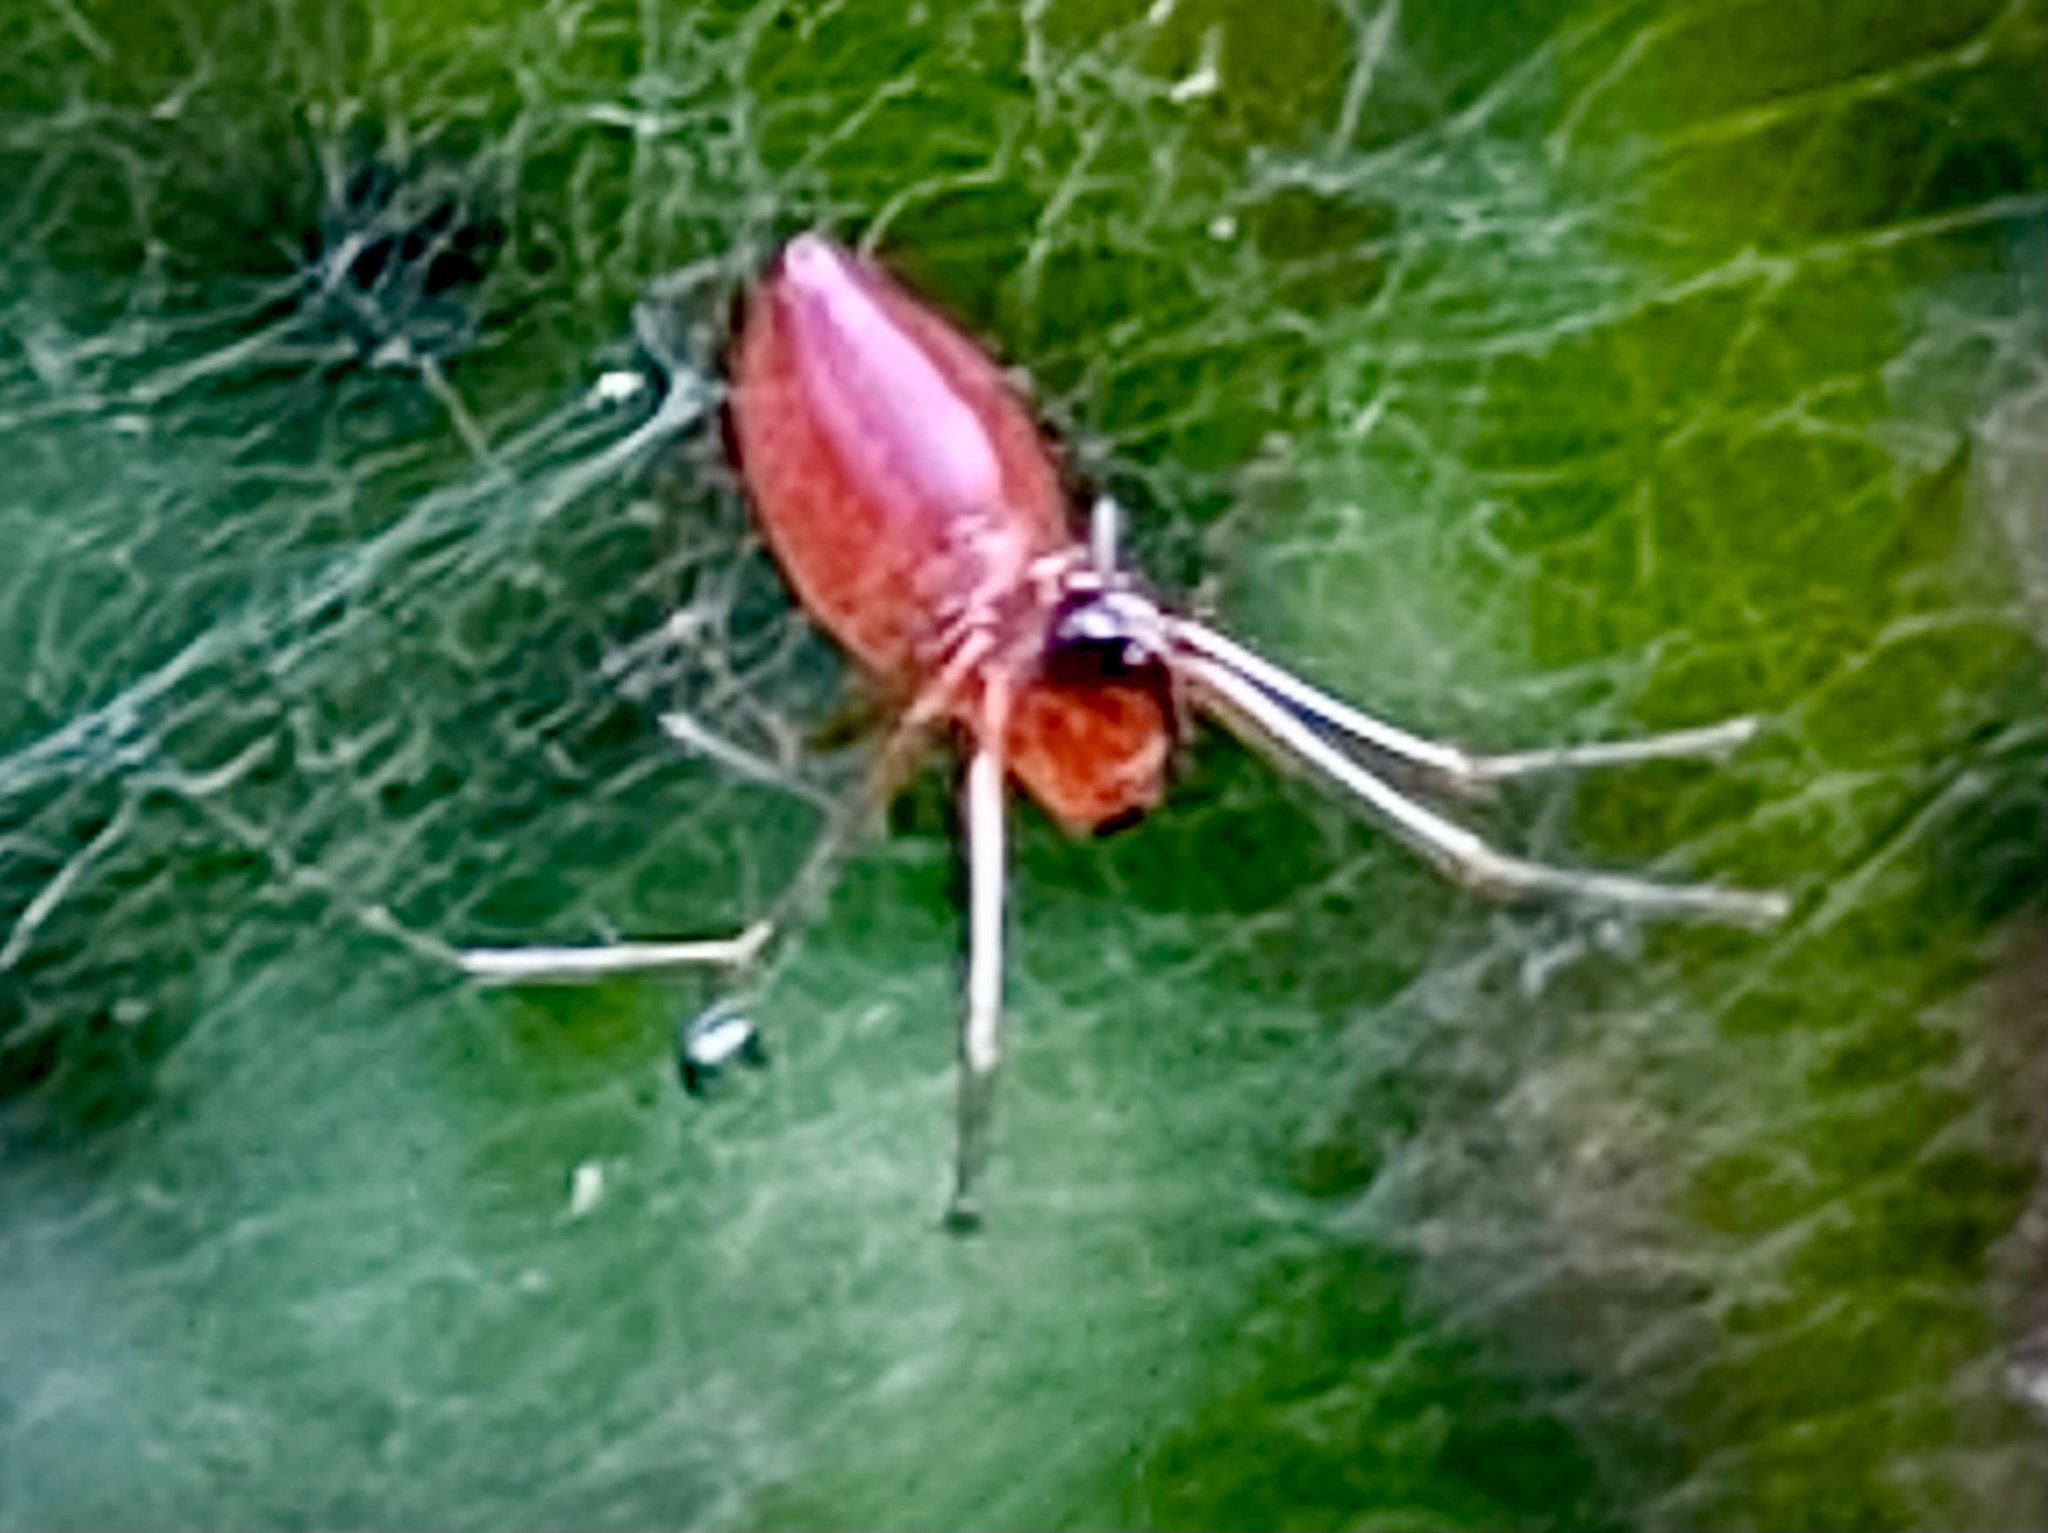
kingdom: Animalia
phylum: Arthropoda
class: Arachnida
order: Araneae
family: Linyphiidae
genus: Florinda
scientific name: Florinda coccinea
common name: Black-tailed red sheetweaver
